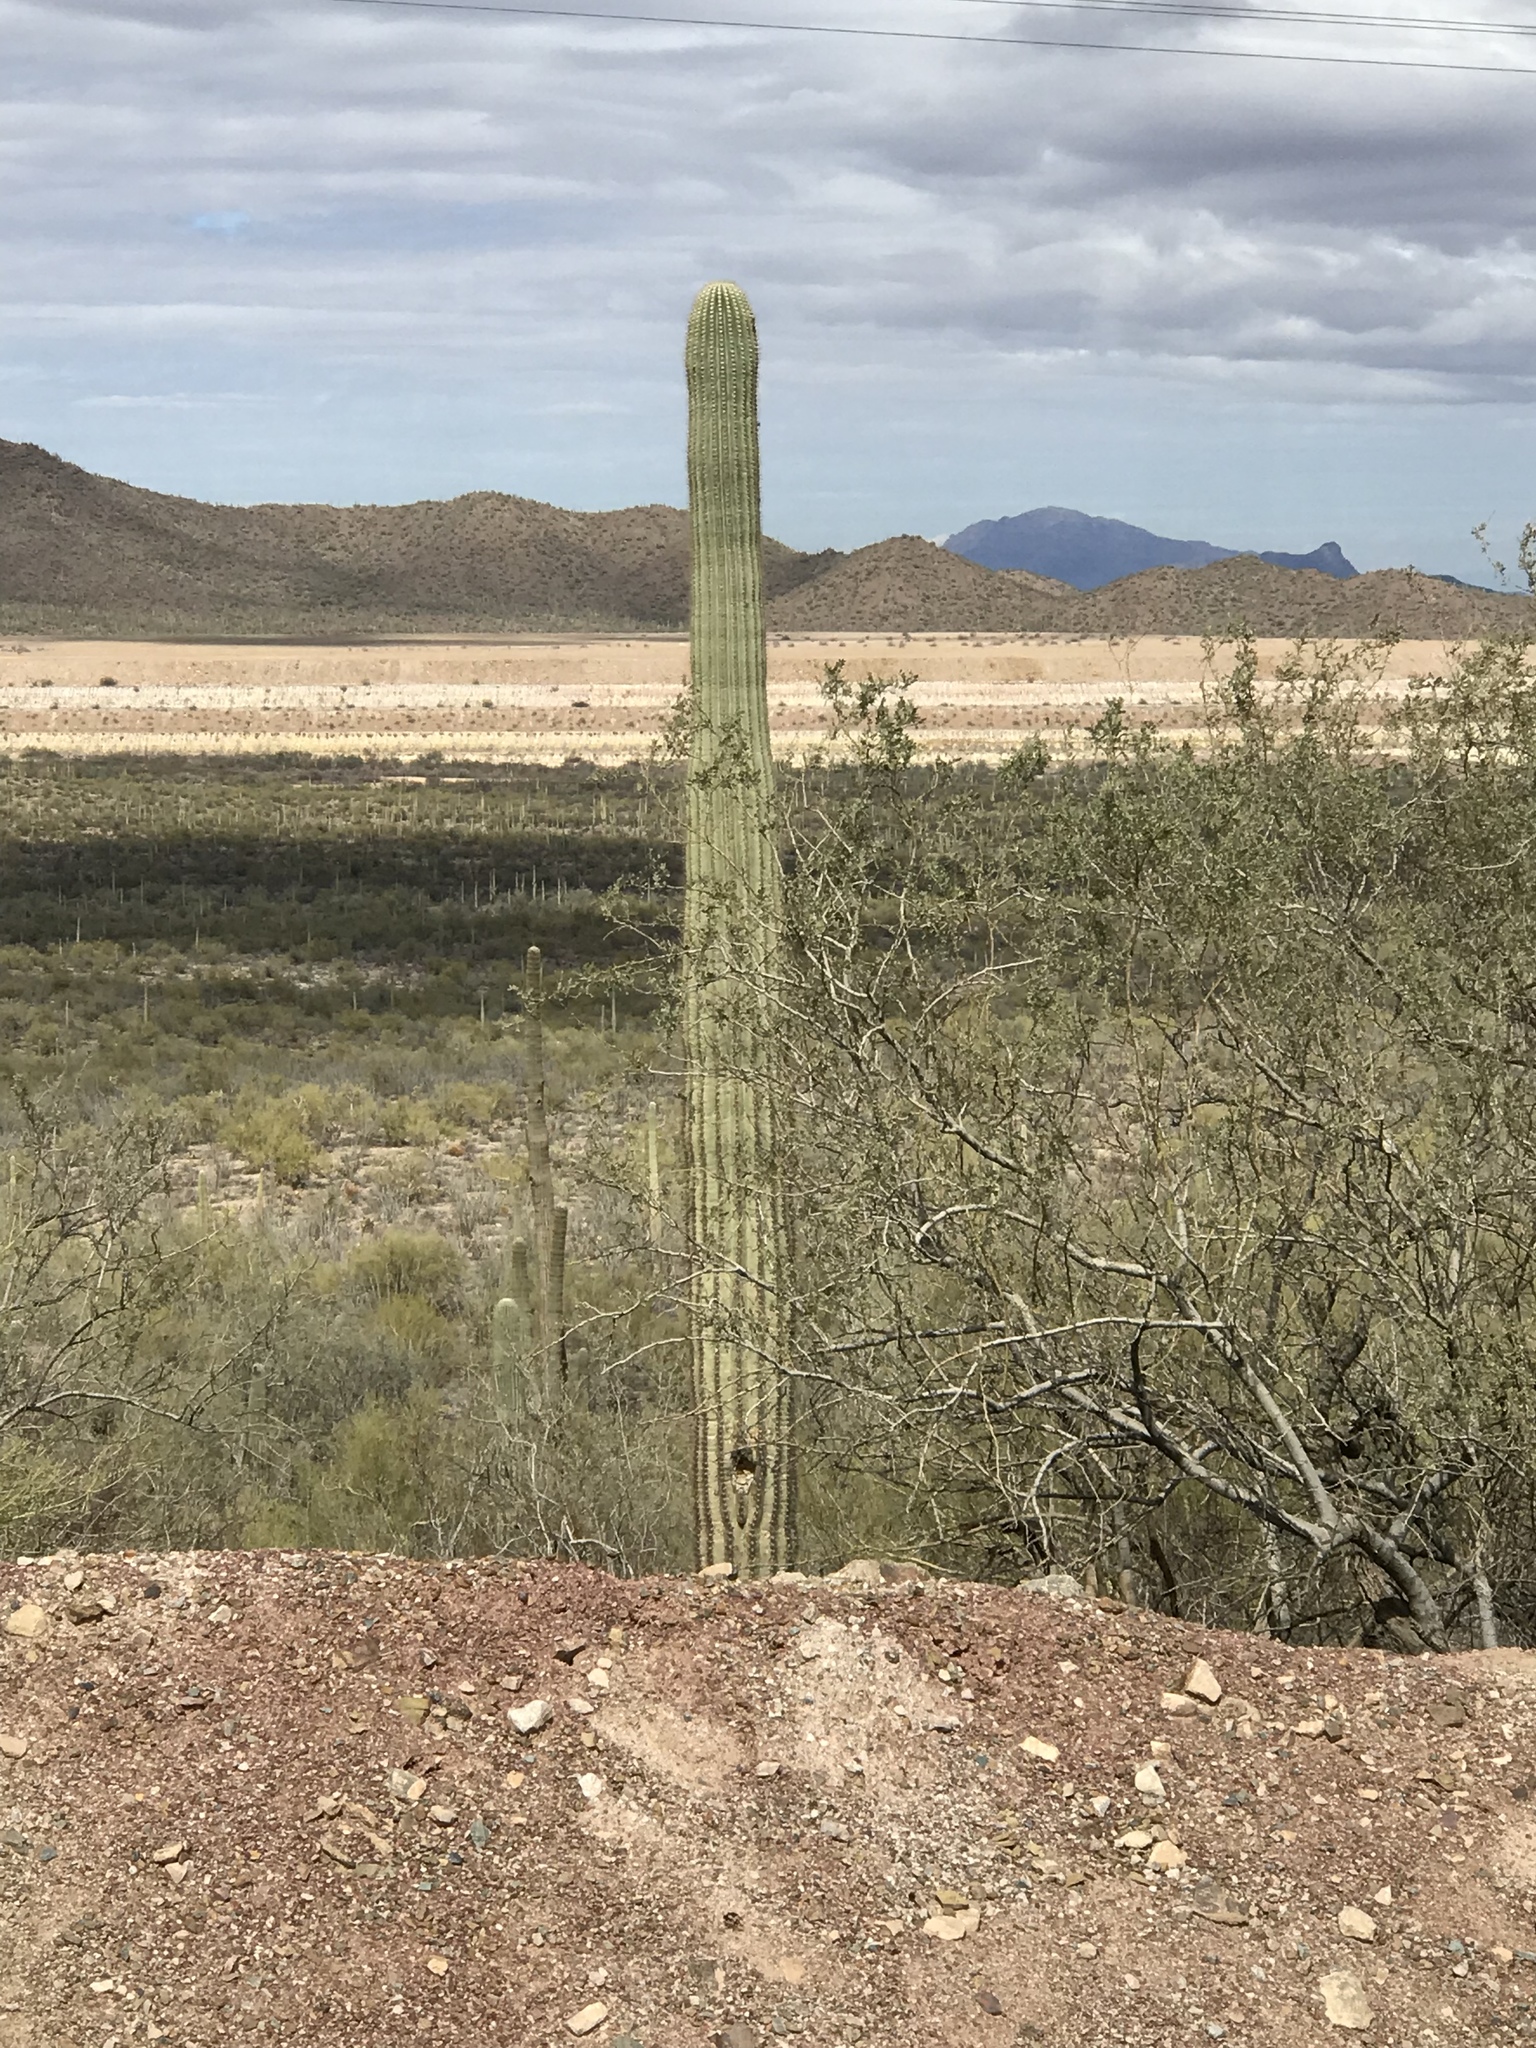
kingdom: Plantae
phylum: Tracheophyta
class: Magnoliopsida
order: Caryophyllales
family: Cactaceae
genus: Carnegiea
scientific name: Carnegiea gigantea
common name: Saguaro
